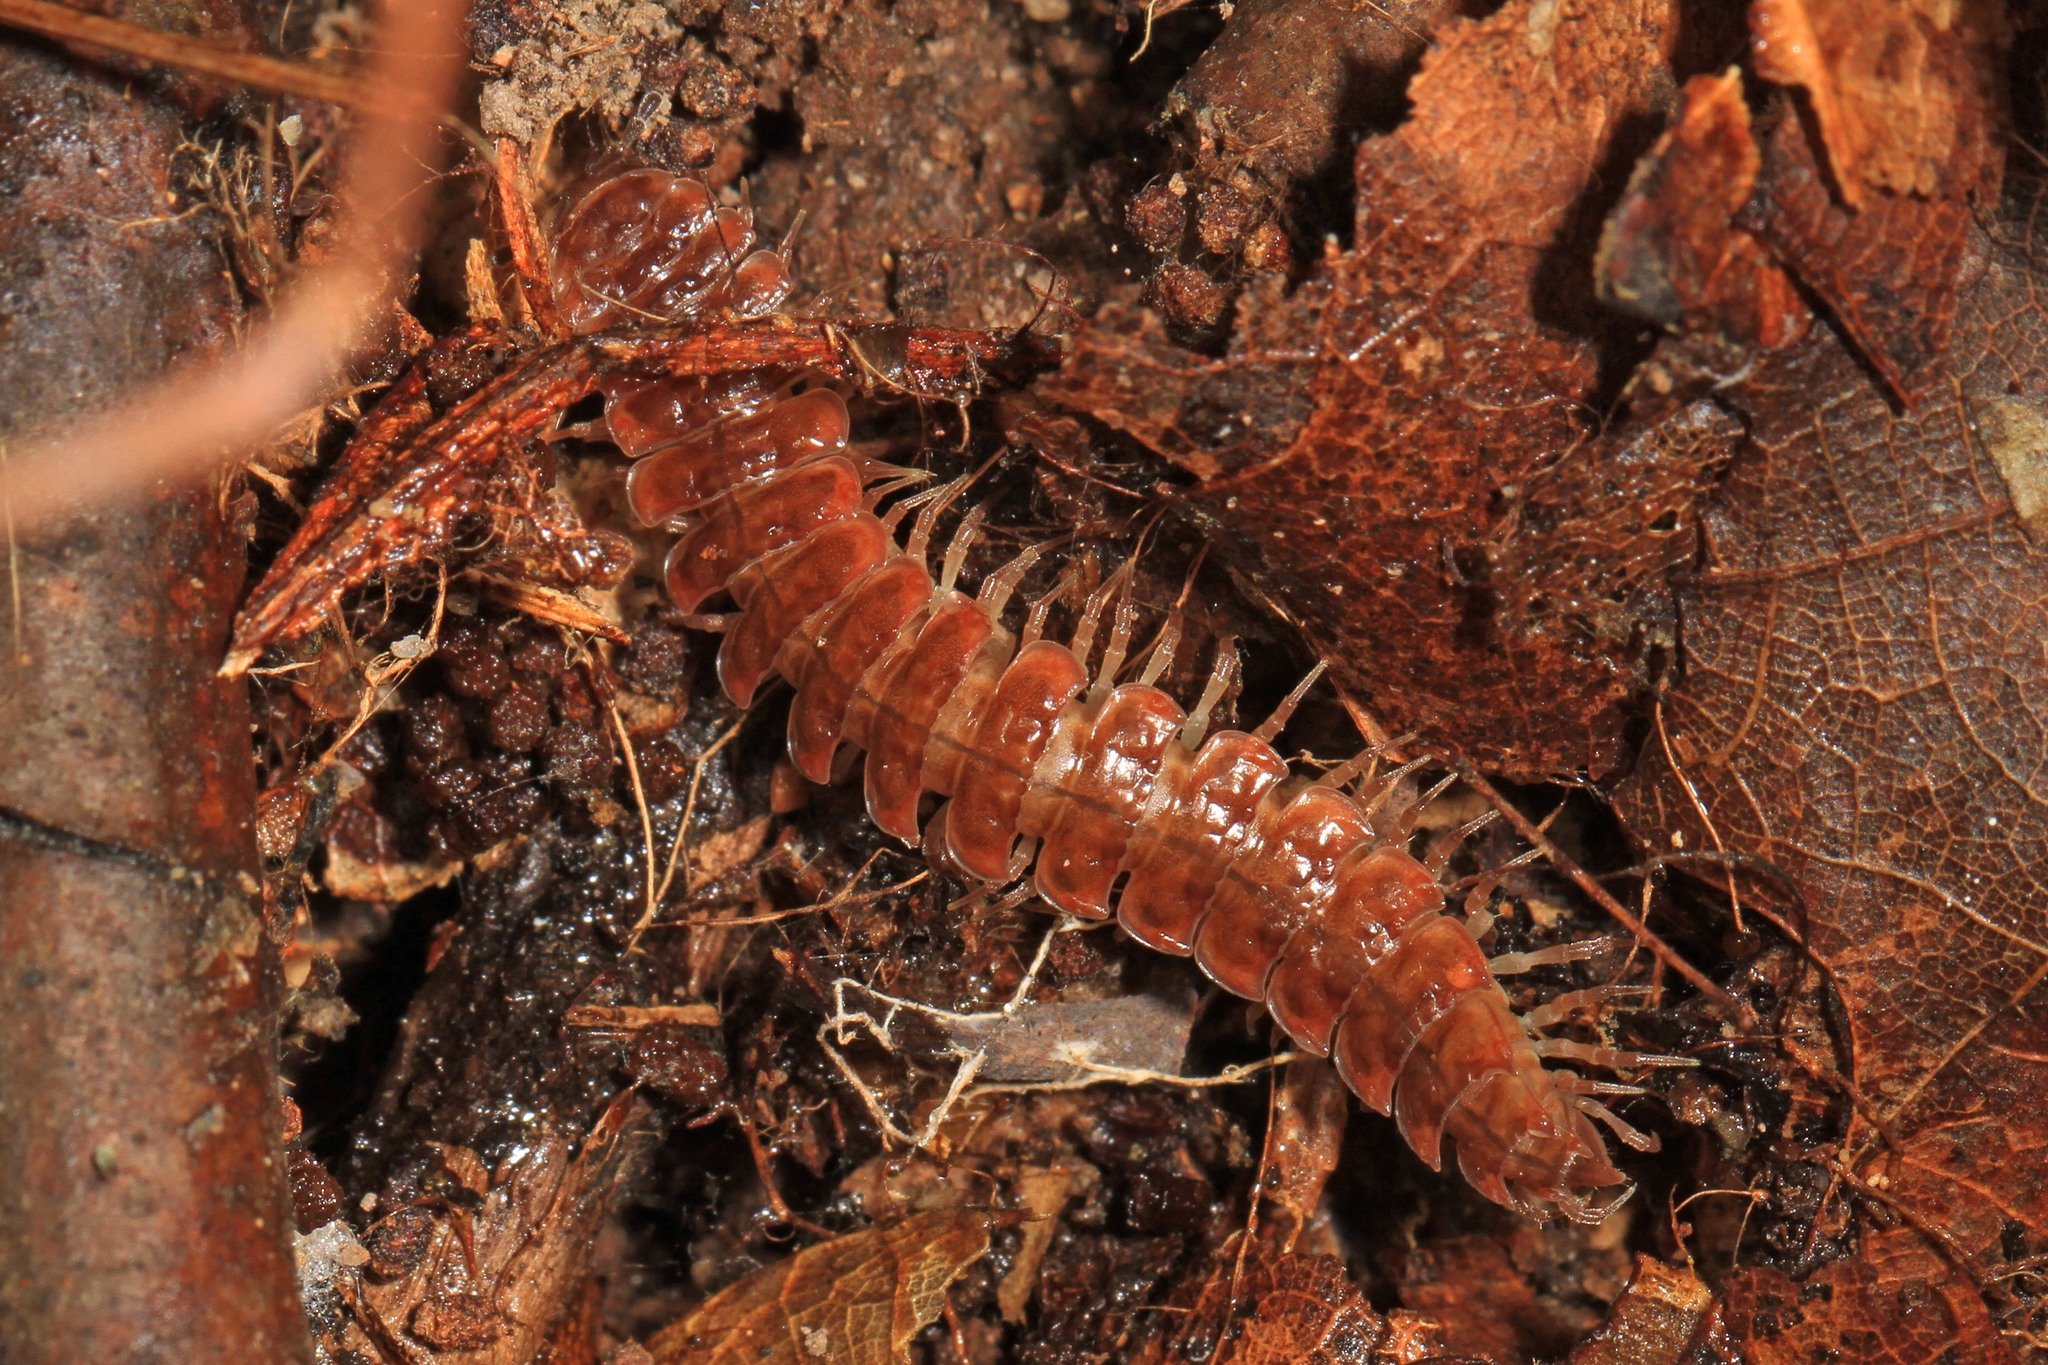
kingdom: Animalia
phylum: Arthropoda
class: Diplopoda
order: Polydesmida
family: Polydesmidae
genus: Pseudopolydesmus
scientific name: Pseudopolydesmus serratus
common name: Common pink flat-back millipede
